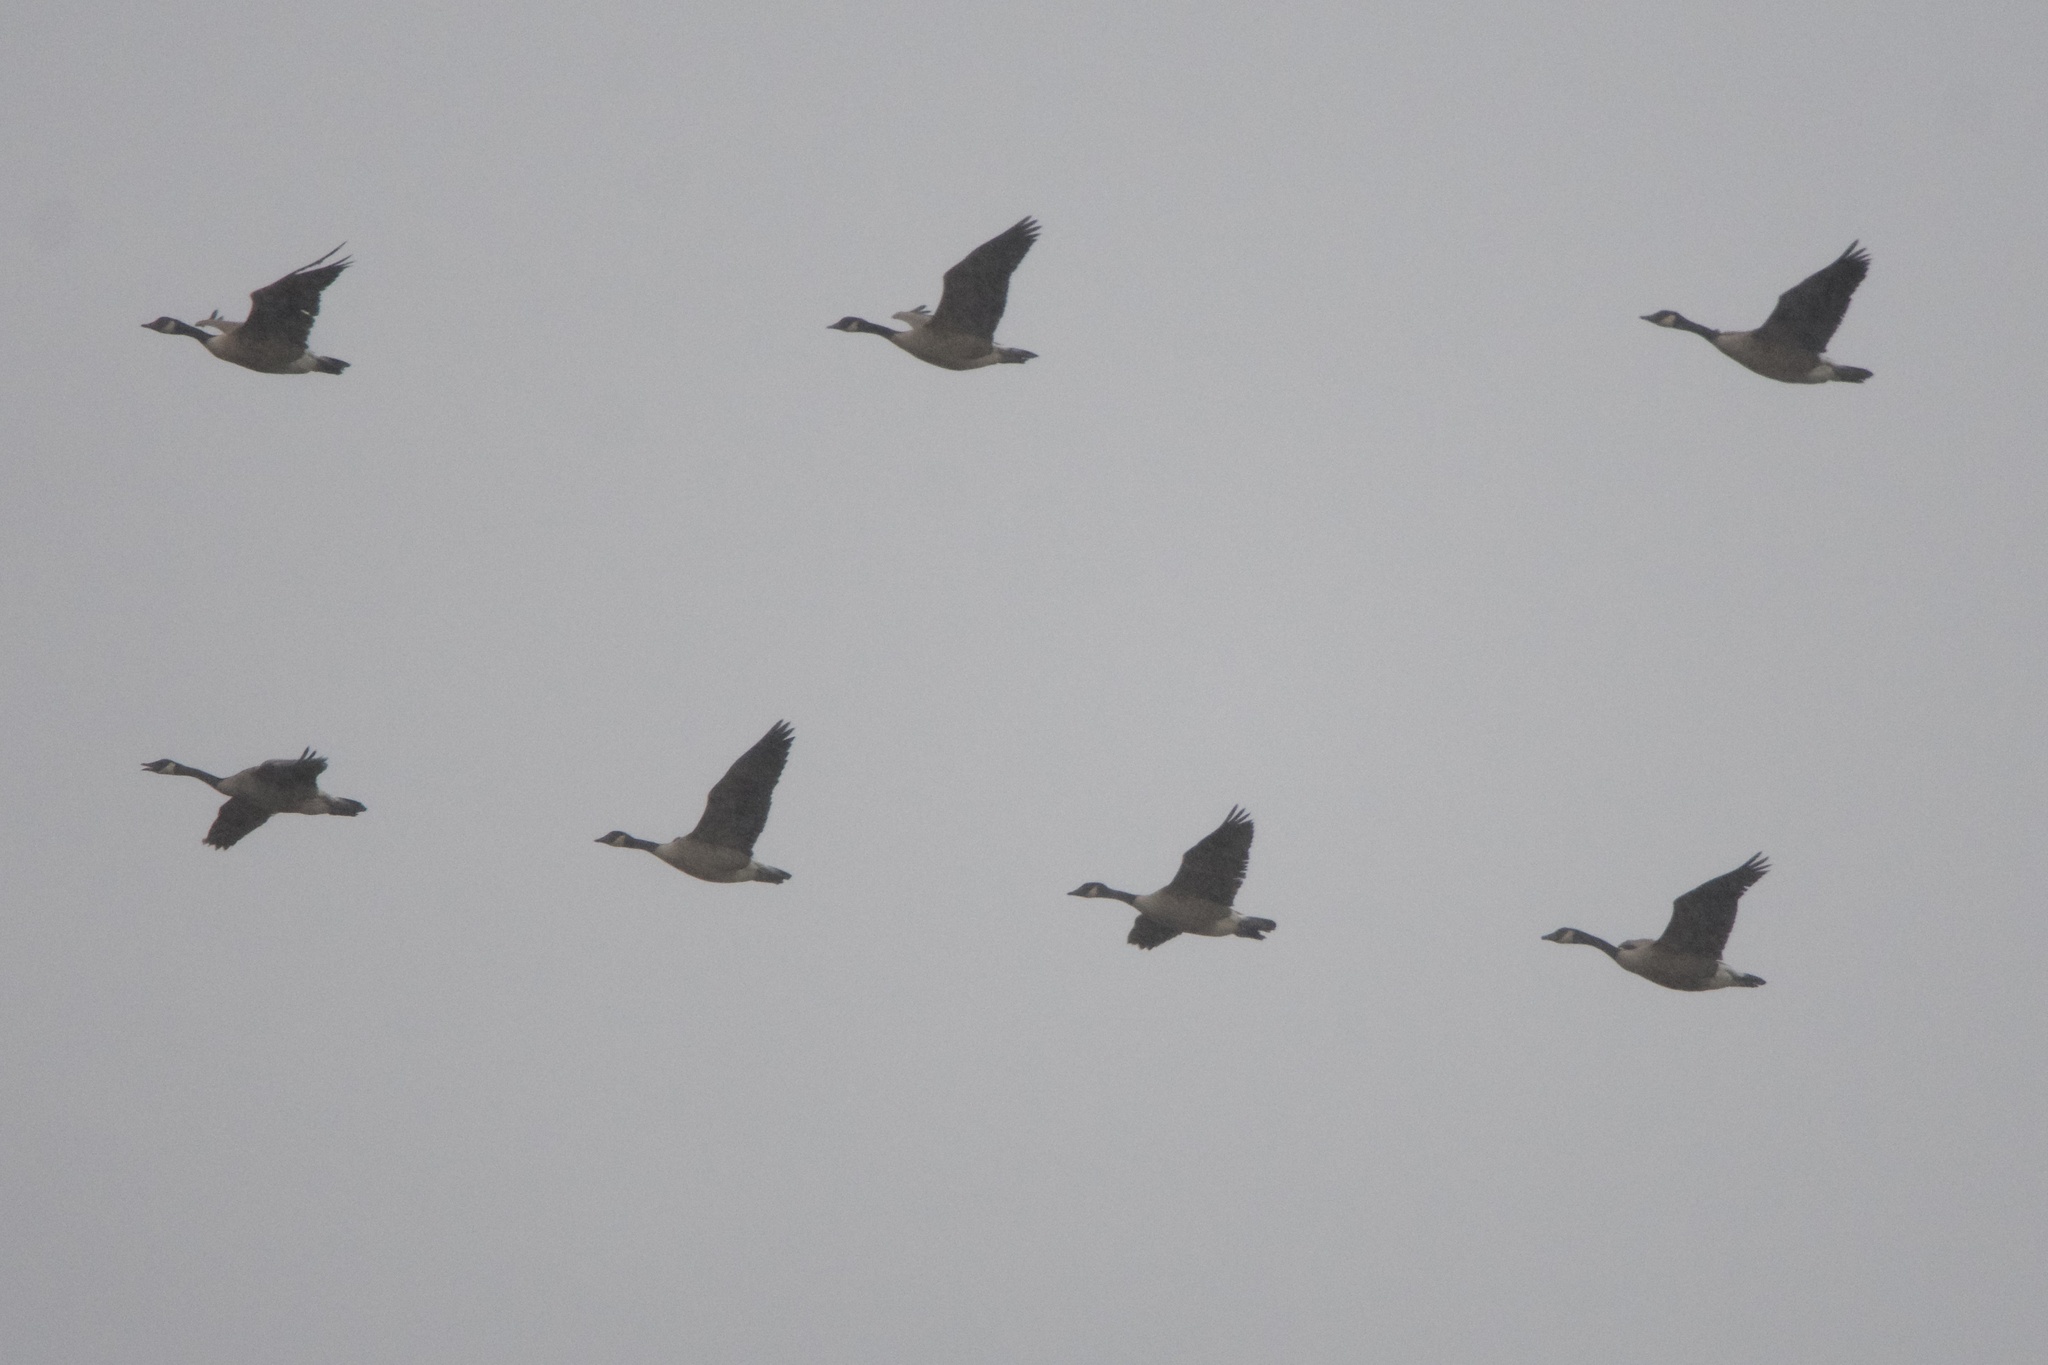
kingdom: Animalia
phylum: Chordata
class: Aves
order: Anseriformes
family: Anatidae
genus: Branta
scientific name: Branta canadensis
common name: Canada goose
